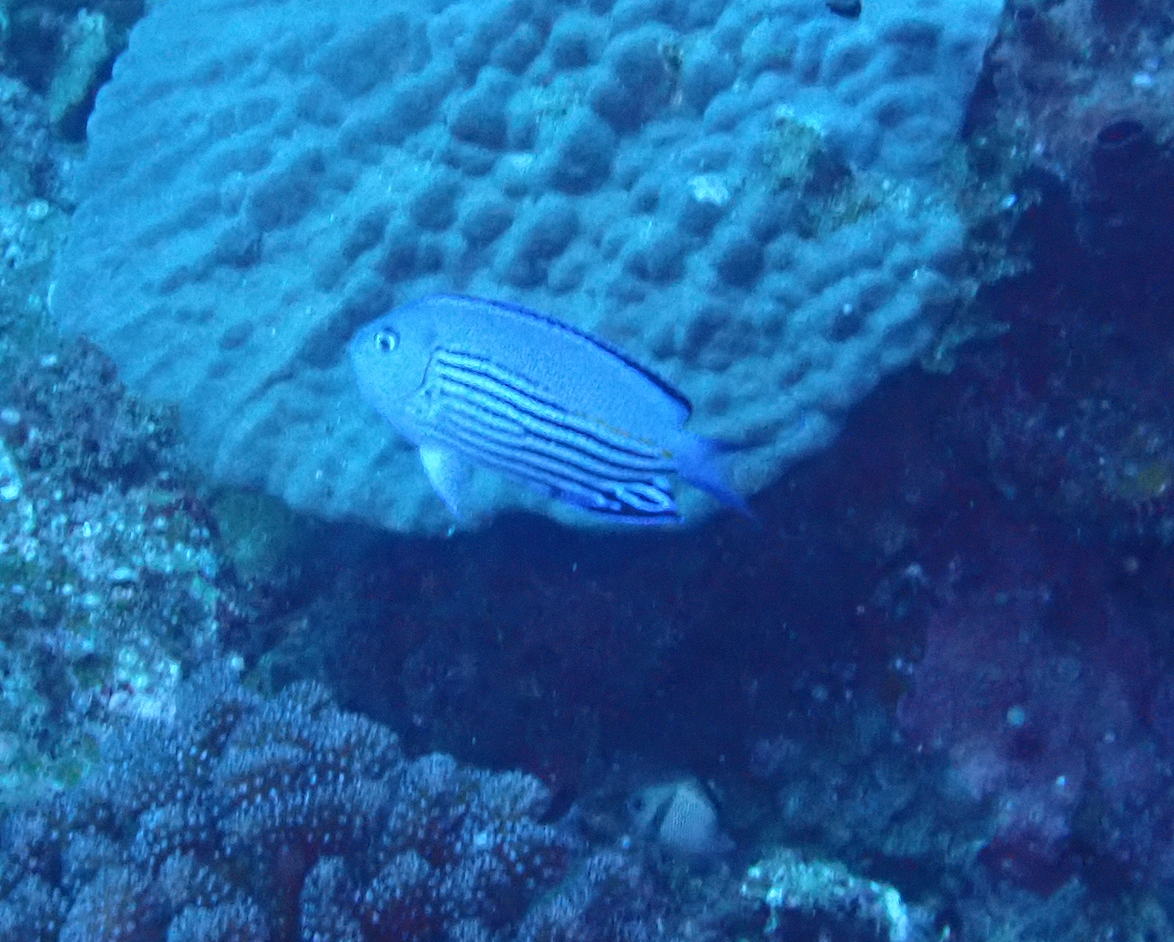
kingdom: Animalia
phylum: Chordata
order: Perciformes
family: Pomacanthidae
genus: Genicanthus
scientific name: Genicanthus watanabei
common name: Watanabe's angelfish
